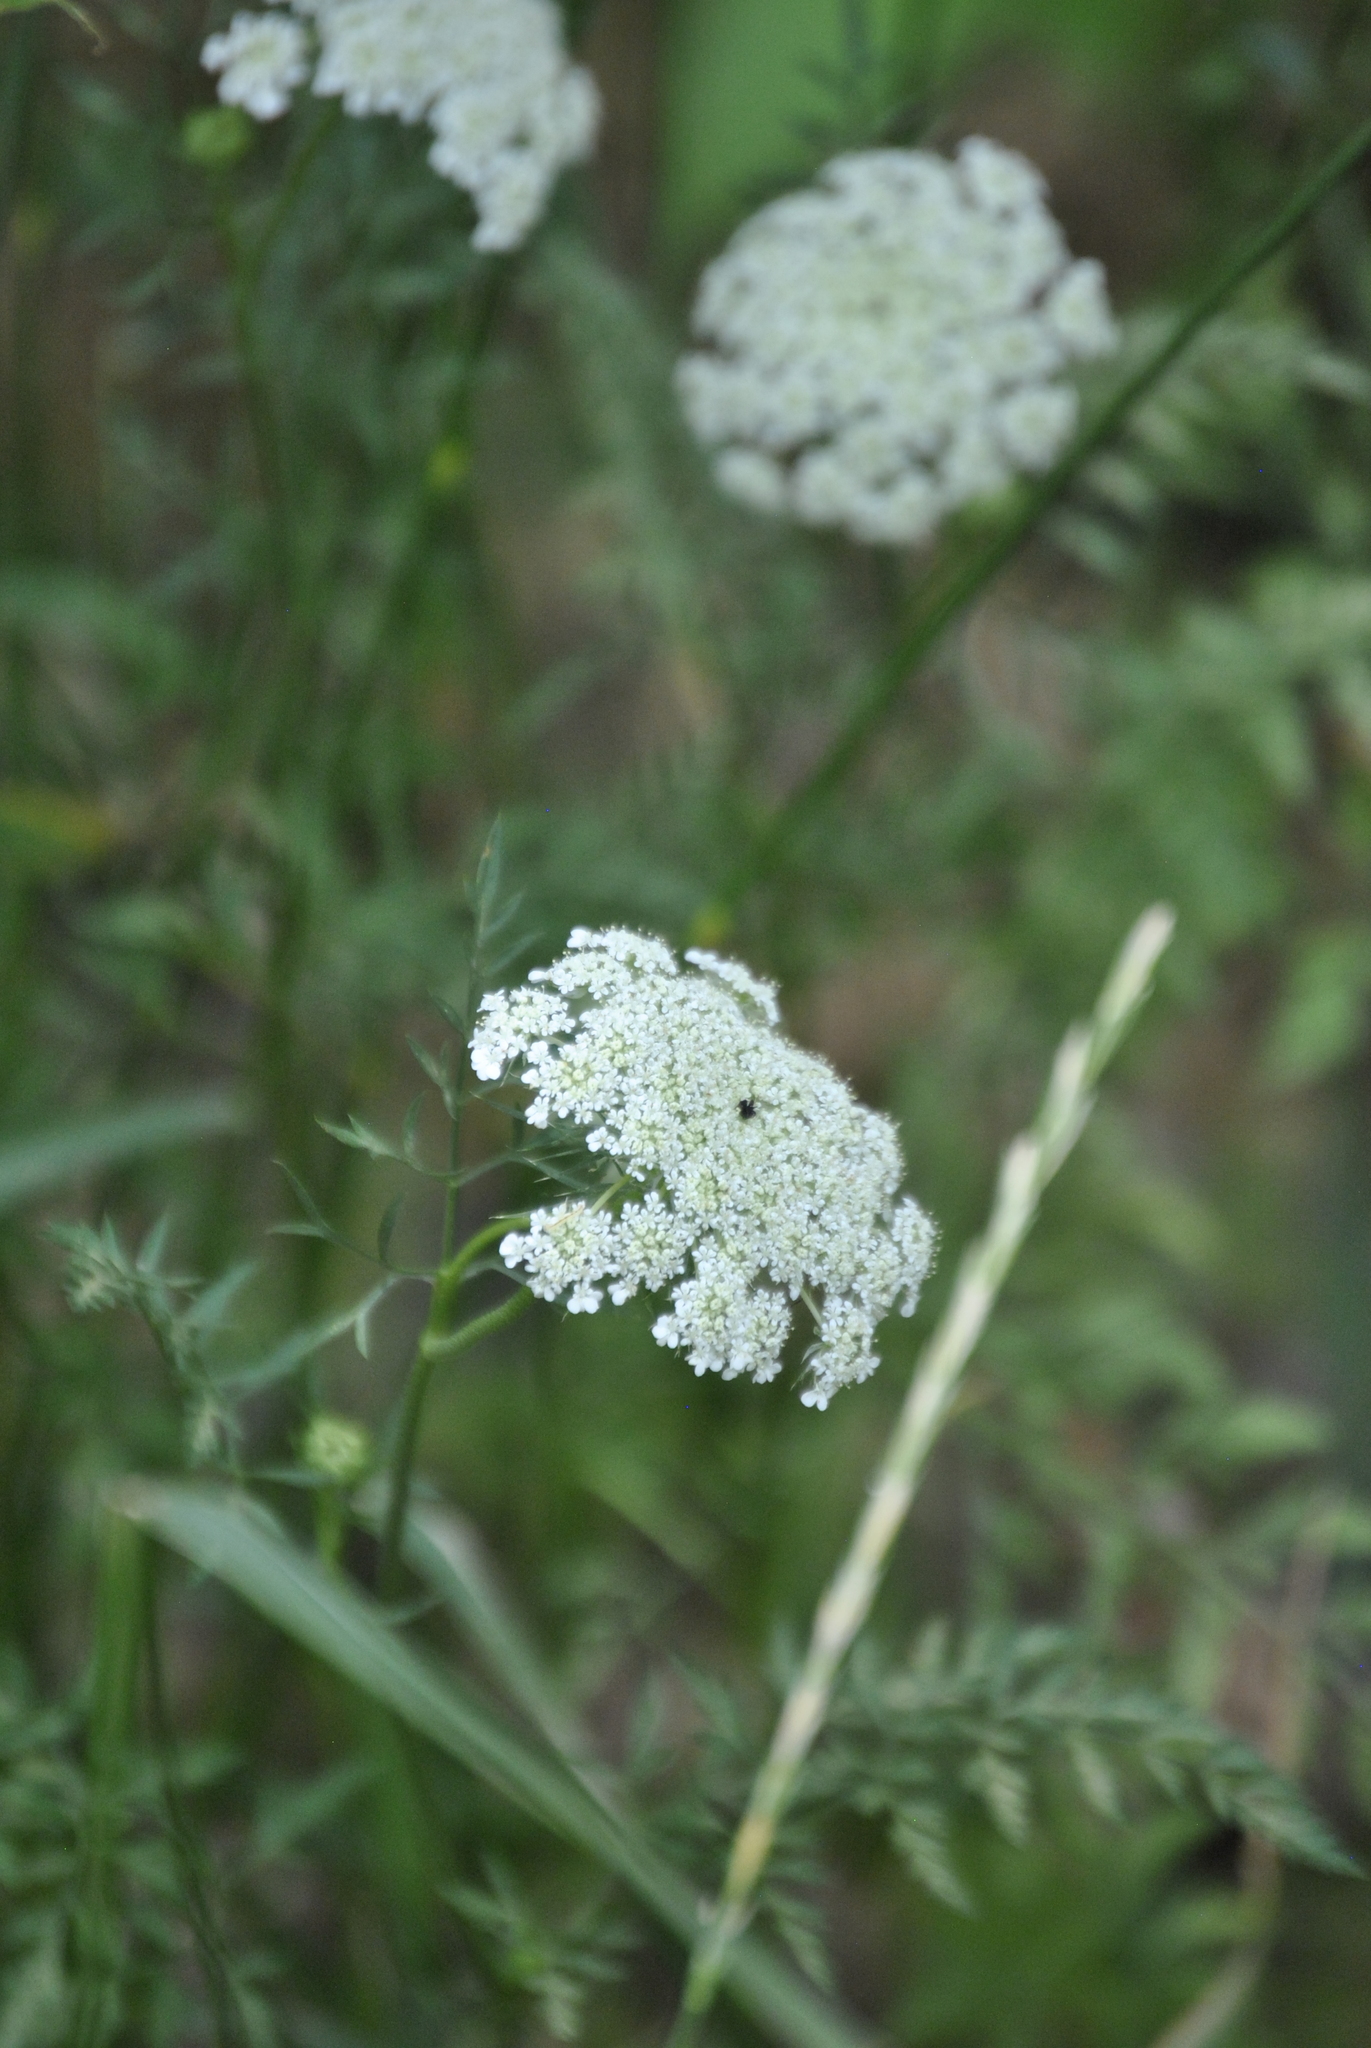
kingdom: Plantae
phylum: Tracheophyta
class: Magnoliopsida
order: Apiales
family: Apiaceae
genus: Daucus
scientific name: Daucus carota
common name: Wild carrot
